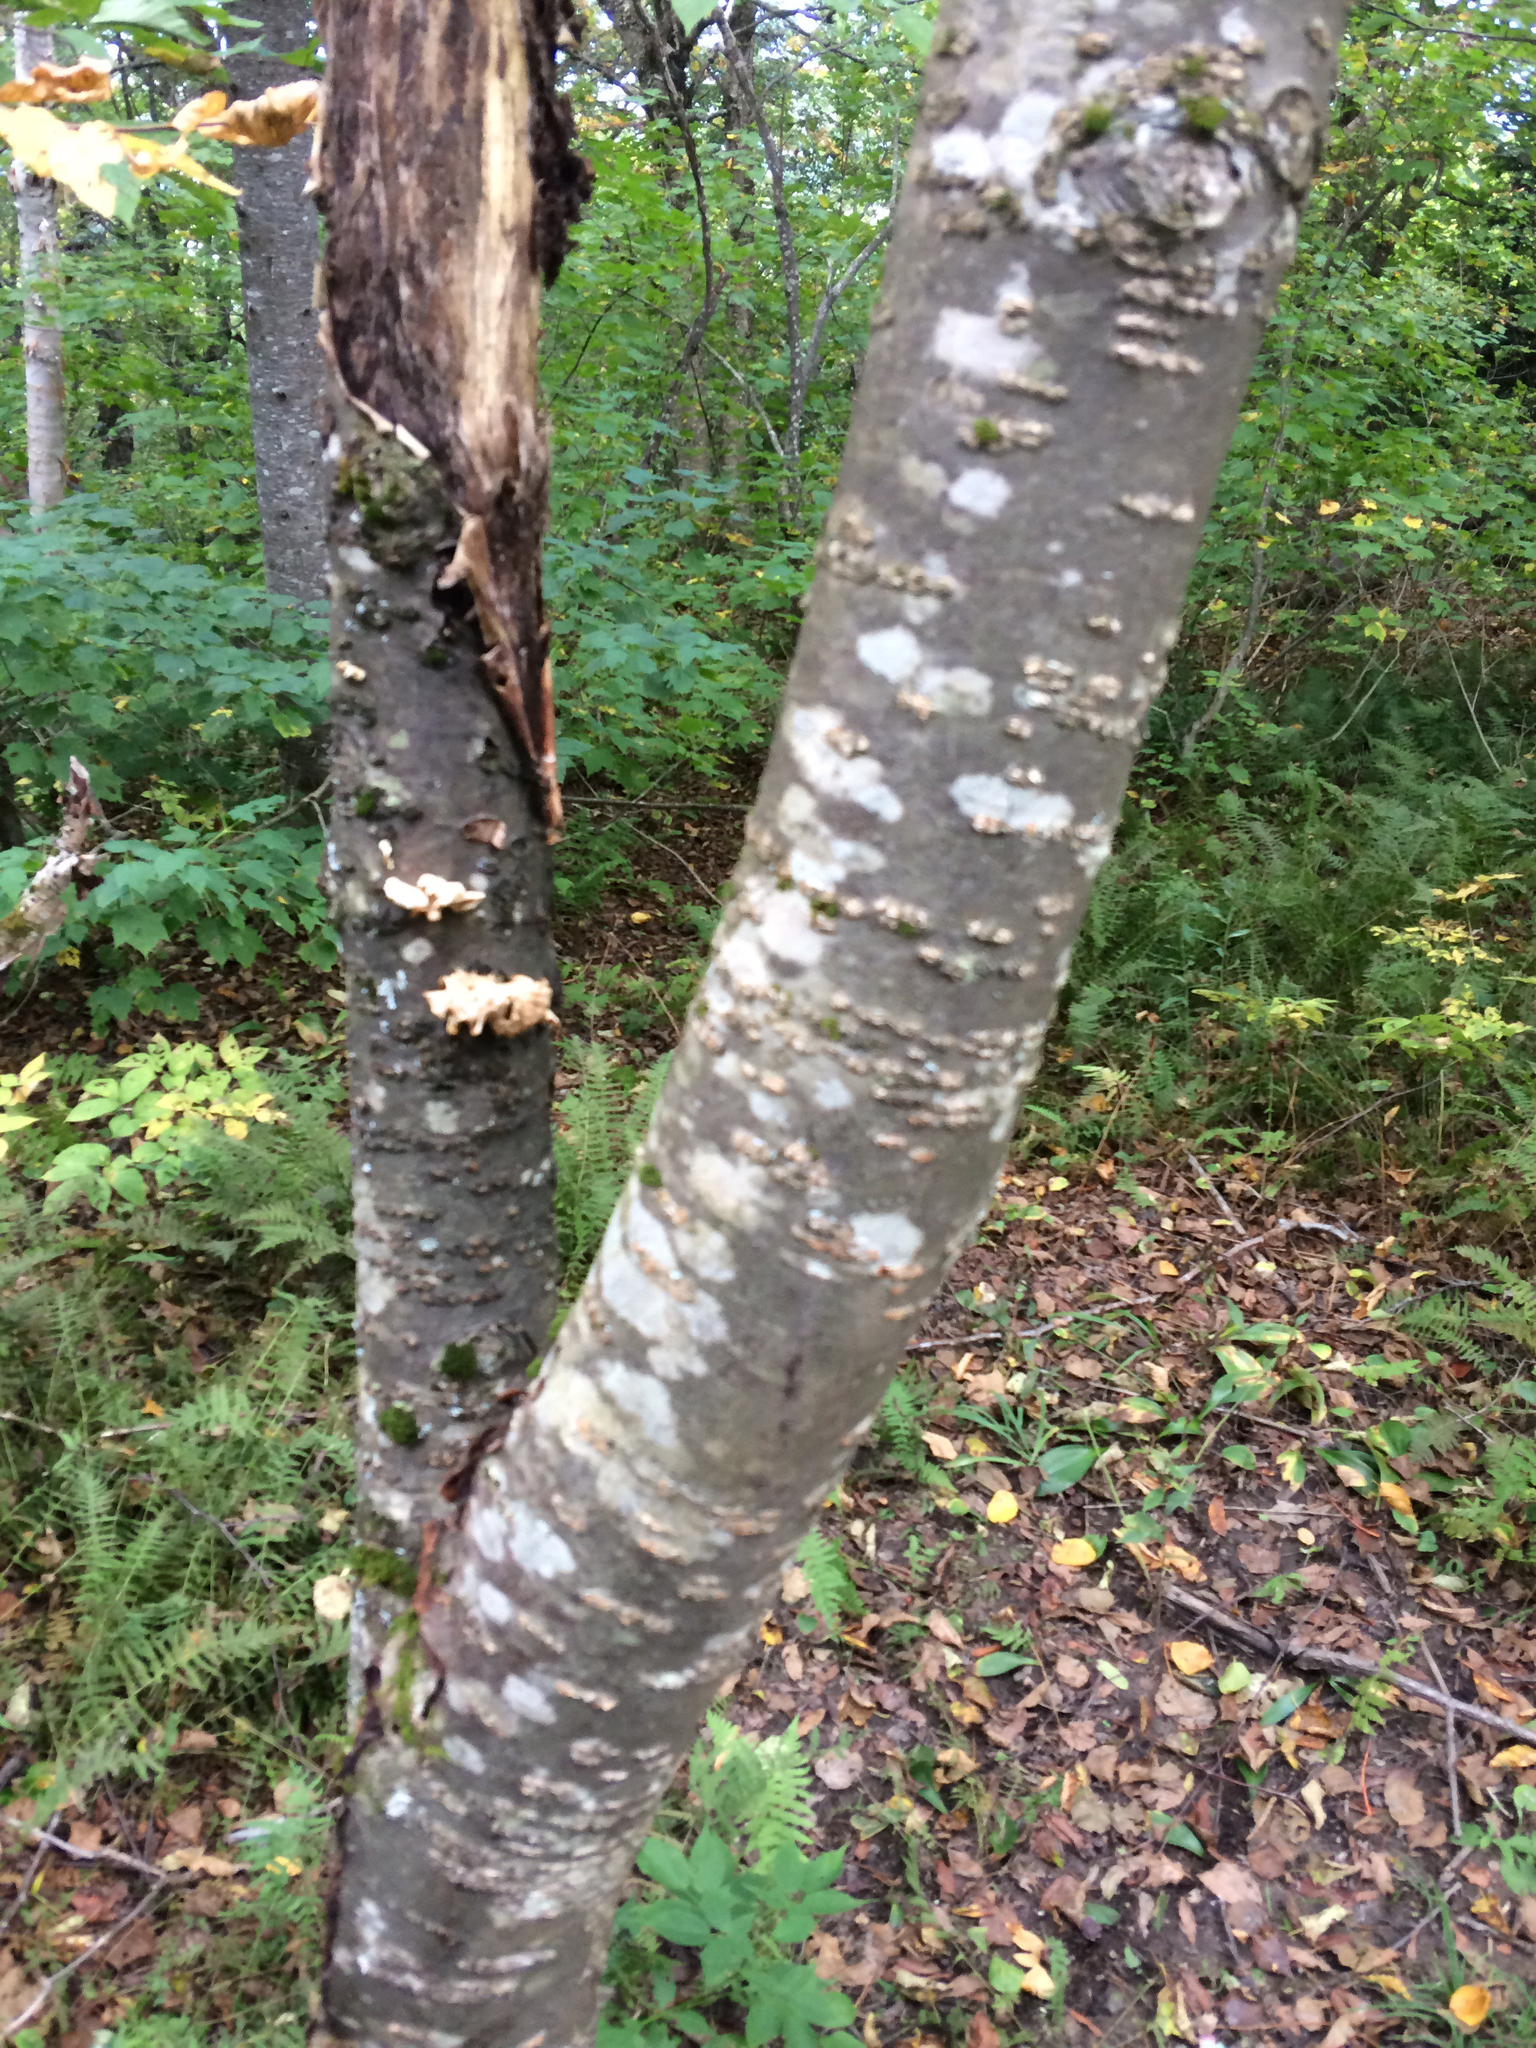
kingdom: Plantae
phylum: Tracheophyta
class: Magnoliopsida
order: Rosales
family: Rosaceae
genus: Prunus
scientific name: Prunus pensylvanica
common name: Pin cherry
